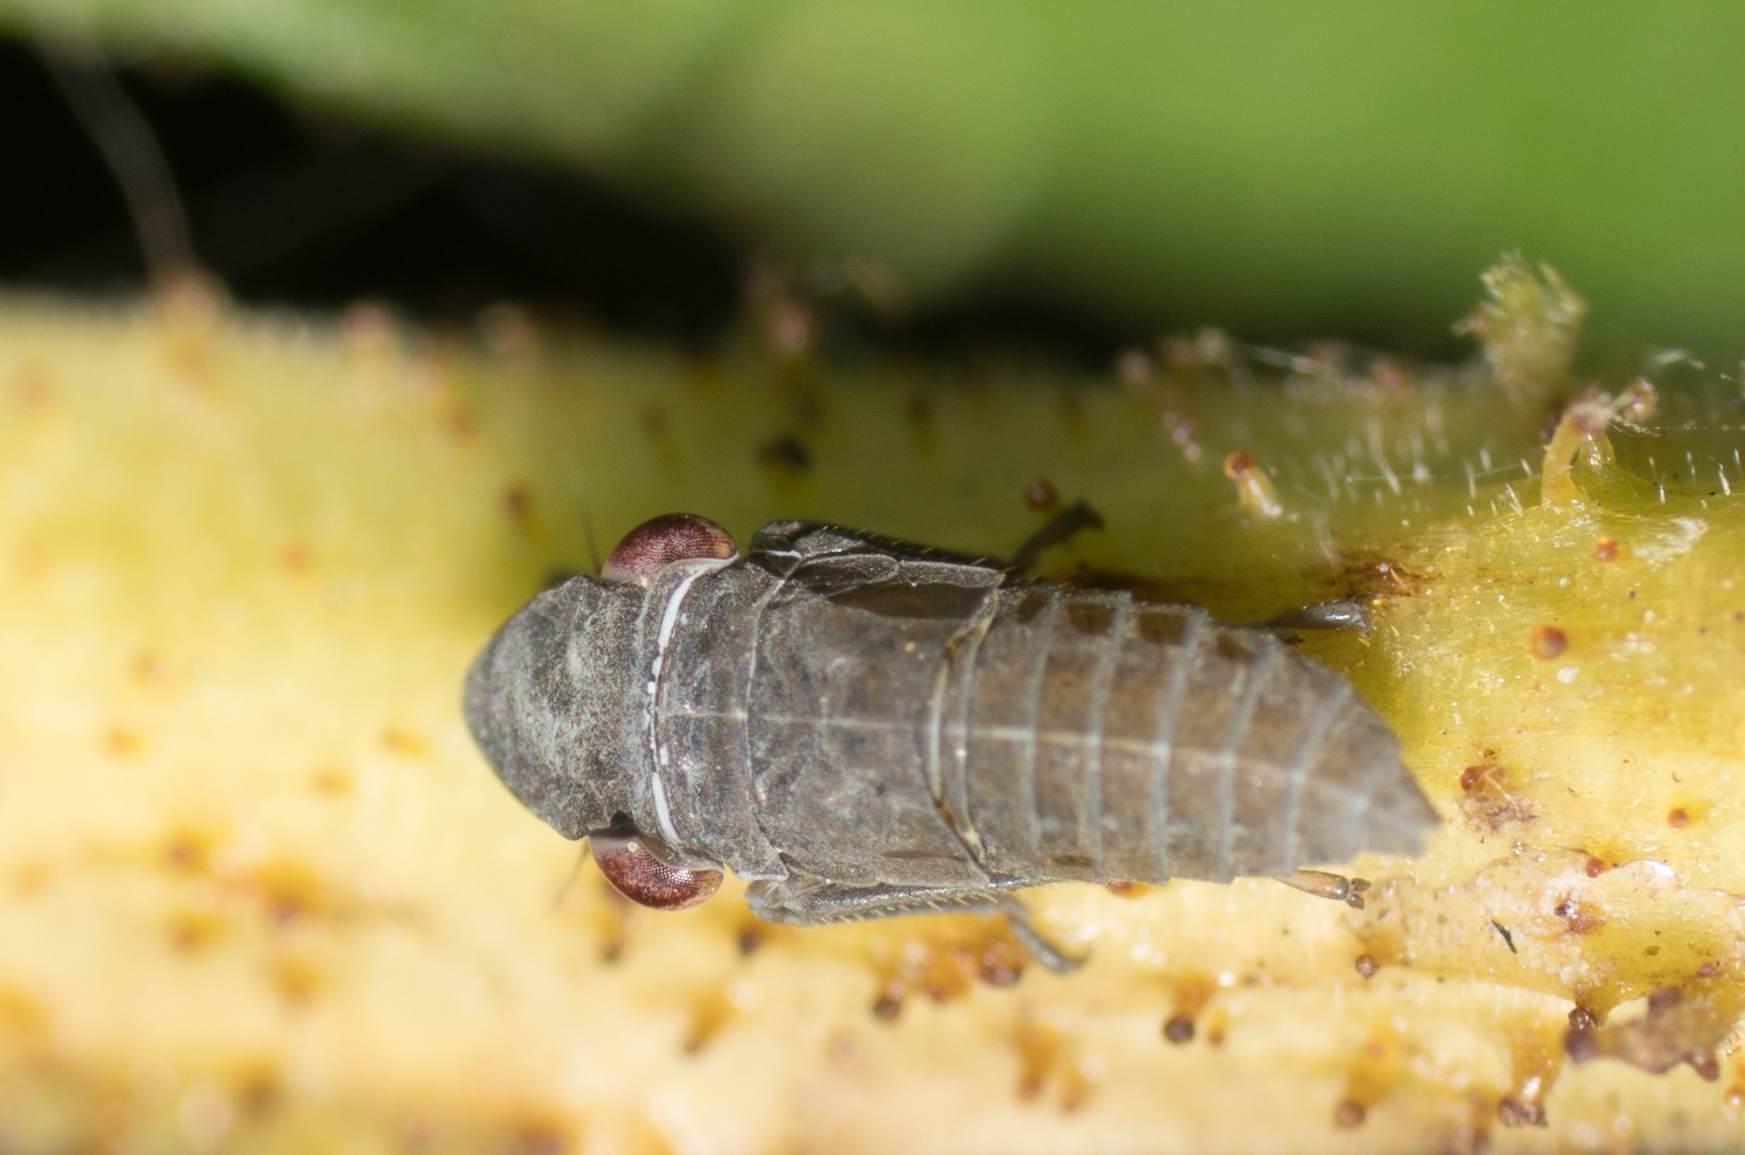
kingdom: Animalia
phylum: Arthropoda
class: Insecta
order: Hemiptera
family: Cicadellidae
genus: Homalodisca
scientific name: Homalodisca
